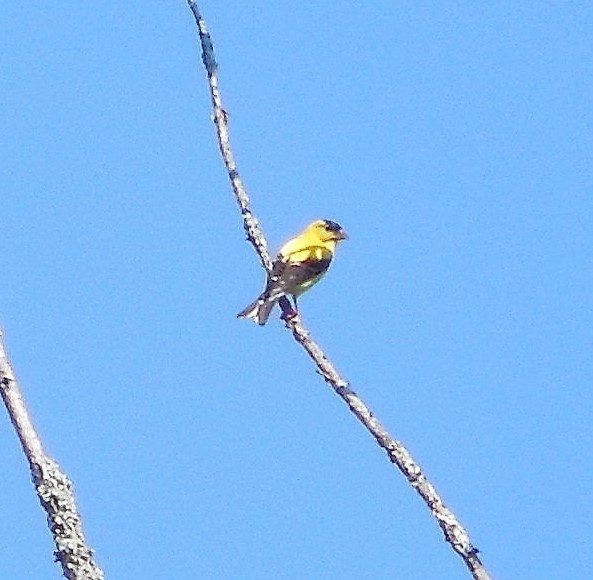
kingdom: Animalia
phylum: Chordata
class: Aves
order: Passeriformes
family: Fringillidae
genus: Spinus
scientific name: Spinus tristis
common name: American goldfinch
